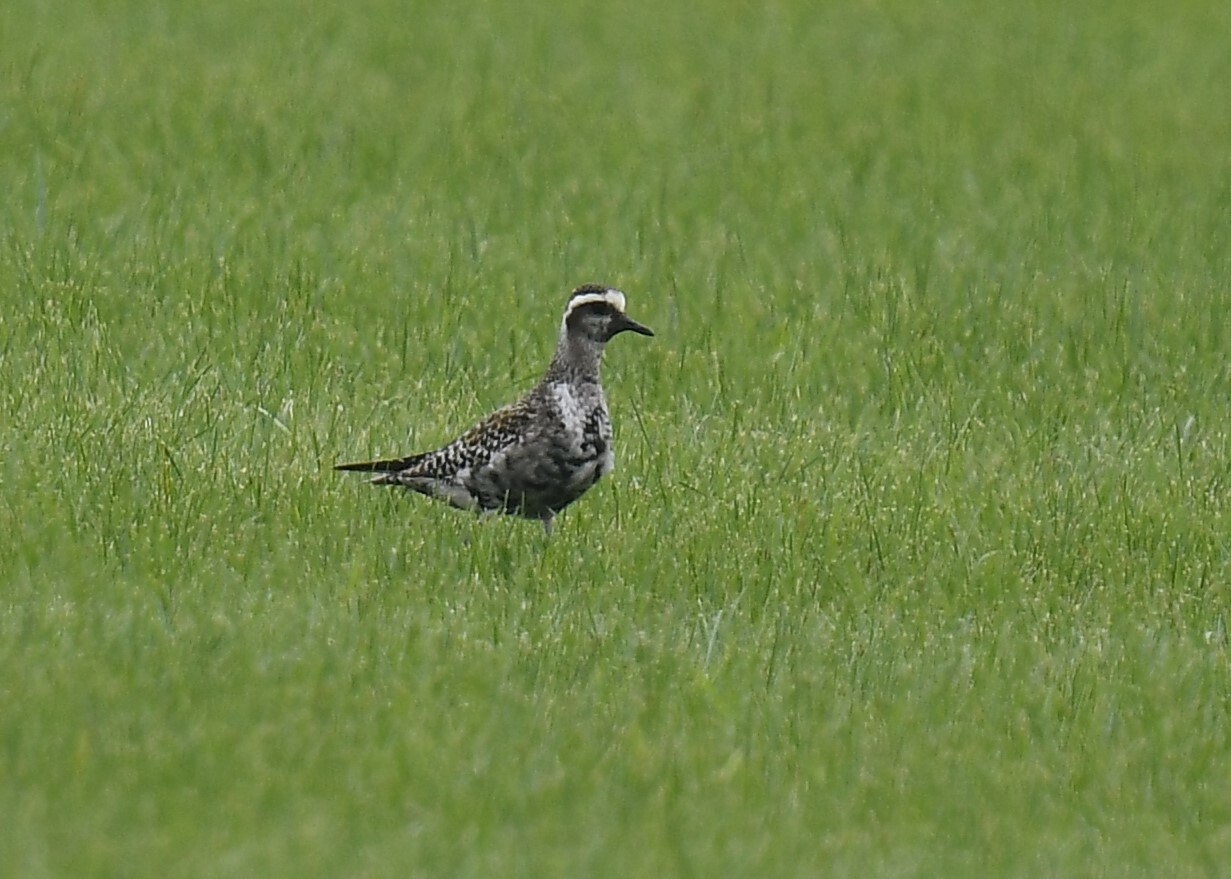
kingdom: Animalia
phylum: Chordata
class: Aves
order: Charadriiformes
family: Charadriidae
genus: Pluvialis
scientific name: Pluvialis dominica
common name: American golden plover
